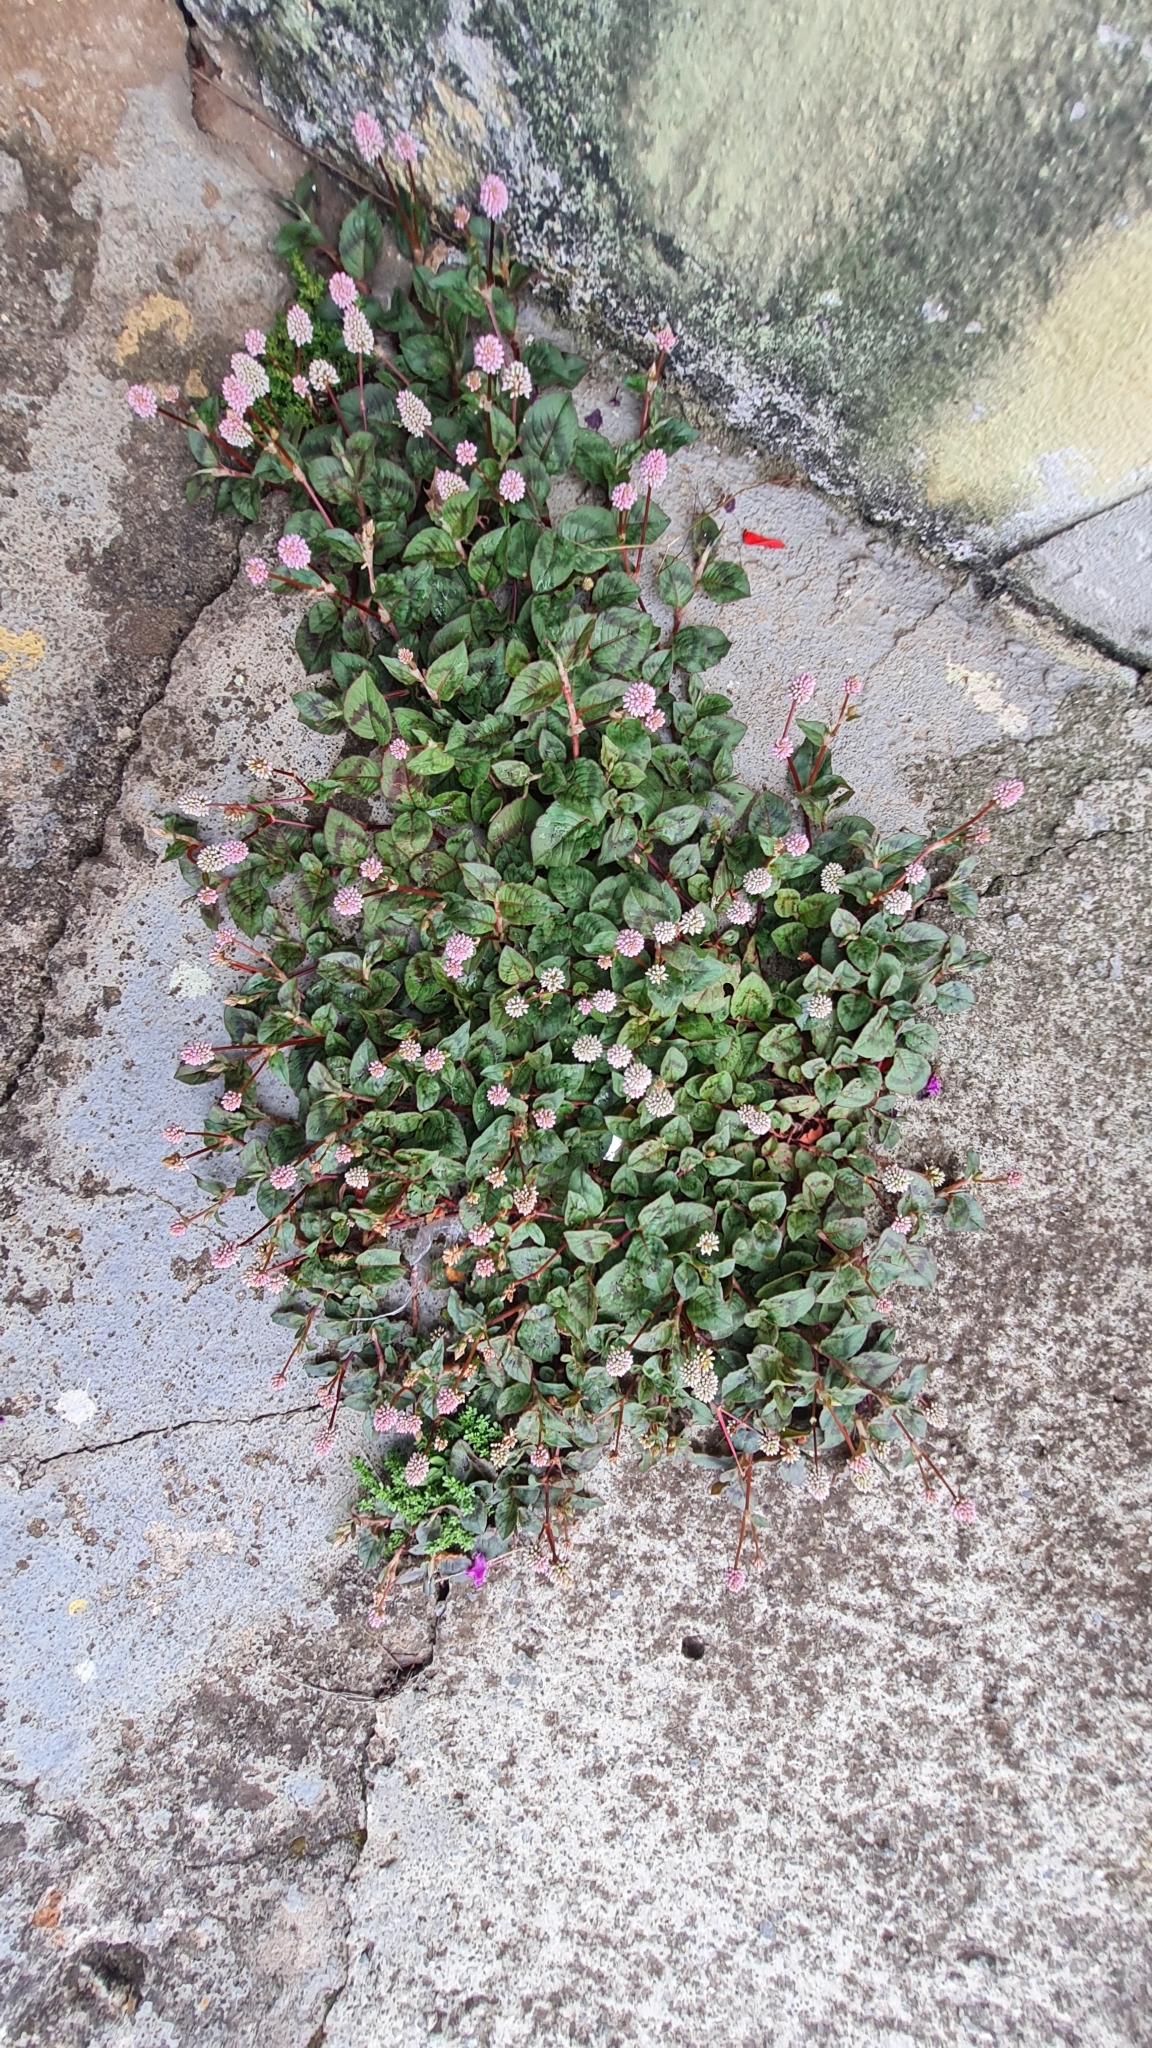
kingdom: Plantae
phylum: Tracheophyta
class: Magnoliopsida
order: Caryophyllales
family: Polygonaceae
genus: Persicaria
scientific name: Persicaria capitata
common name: Pinkhead smartweed
